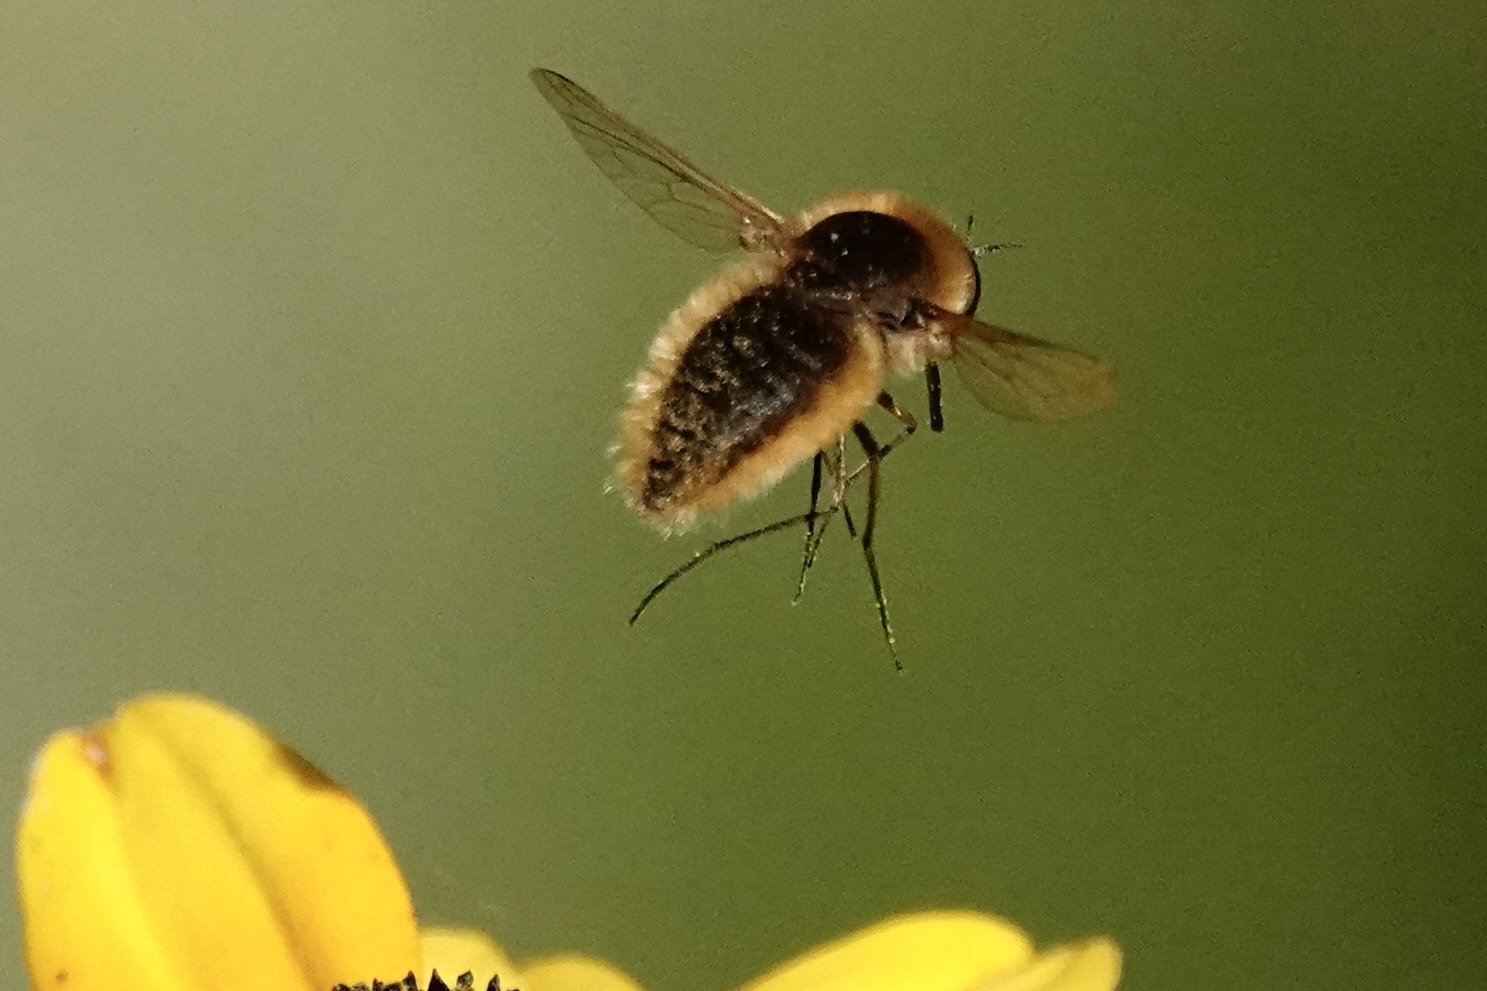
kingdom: Animalia
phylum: Arthropoda
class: Insecta
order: Diptera
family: Bombyliidae
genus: Sparnopolius
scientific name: Sparnopolius confusus
